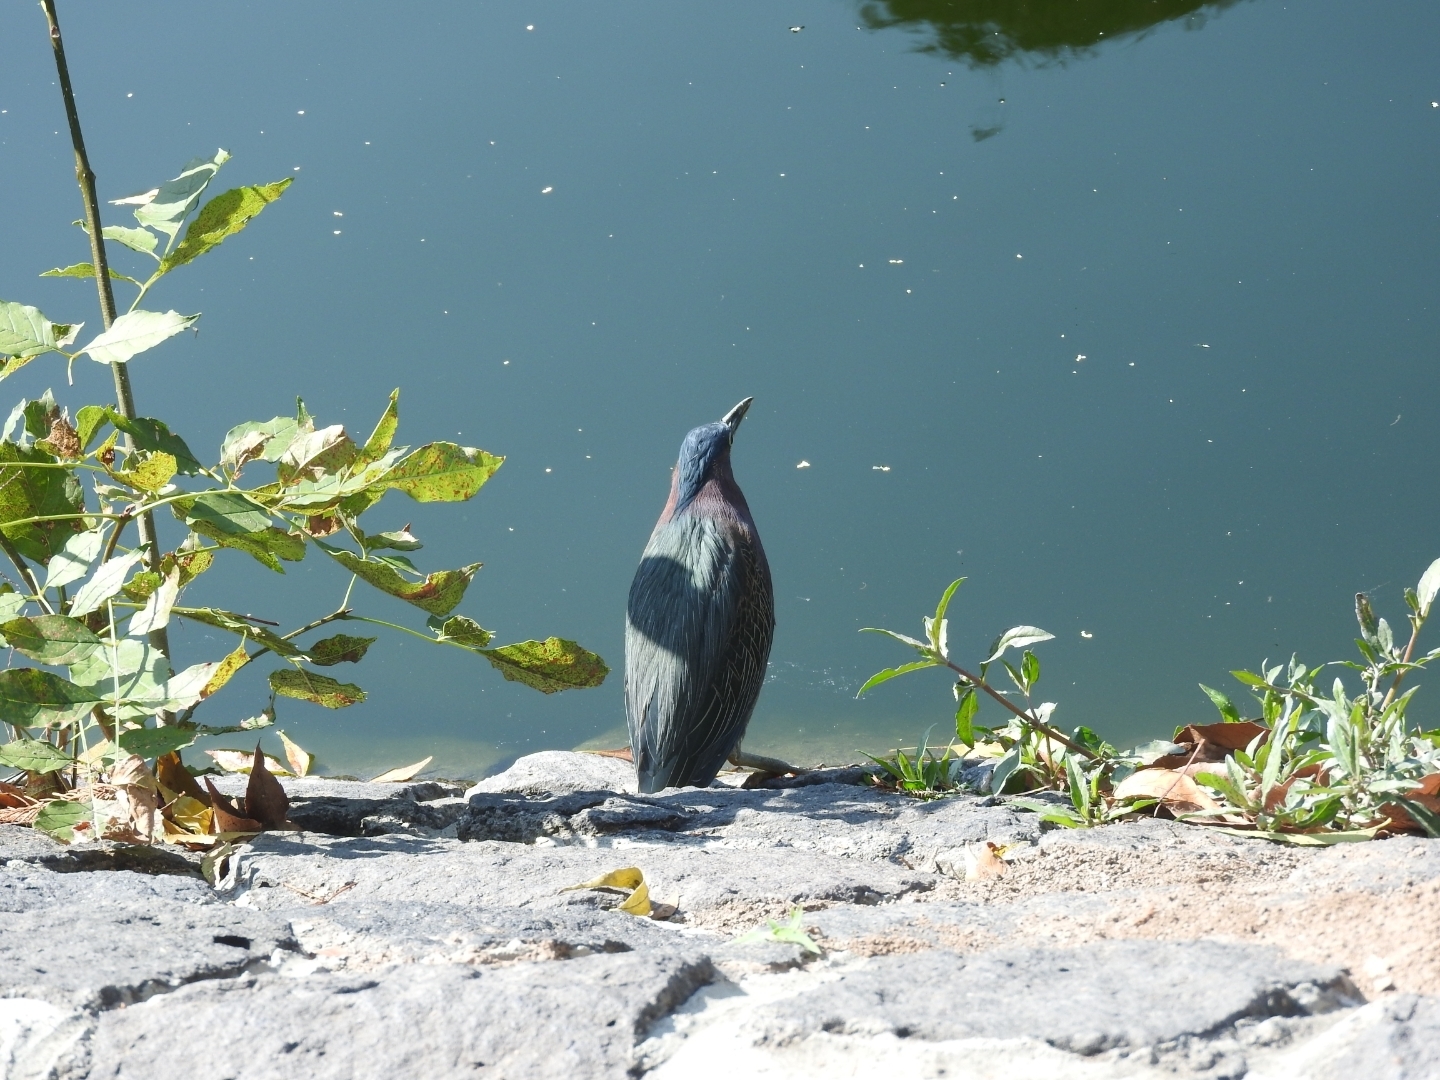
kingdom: Animalia
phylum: Chordata
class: Aves
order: Pelecaniformes
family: Ardeidae
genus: Butorides
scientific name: Butorides virescens
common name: Green heron
